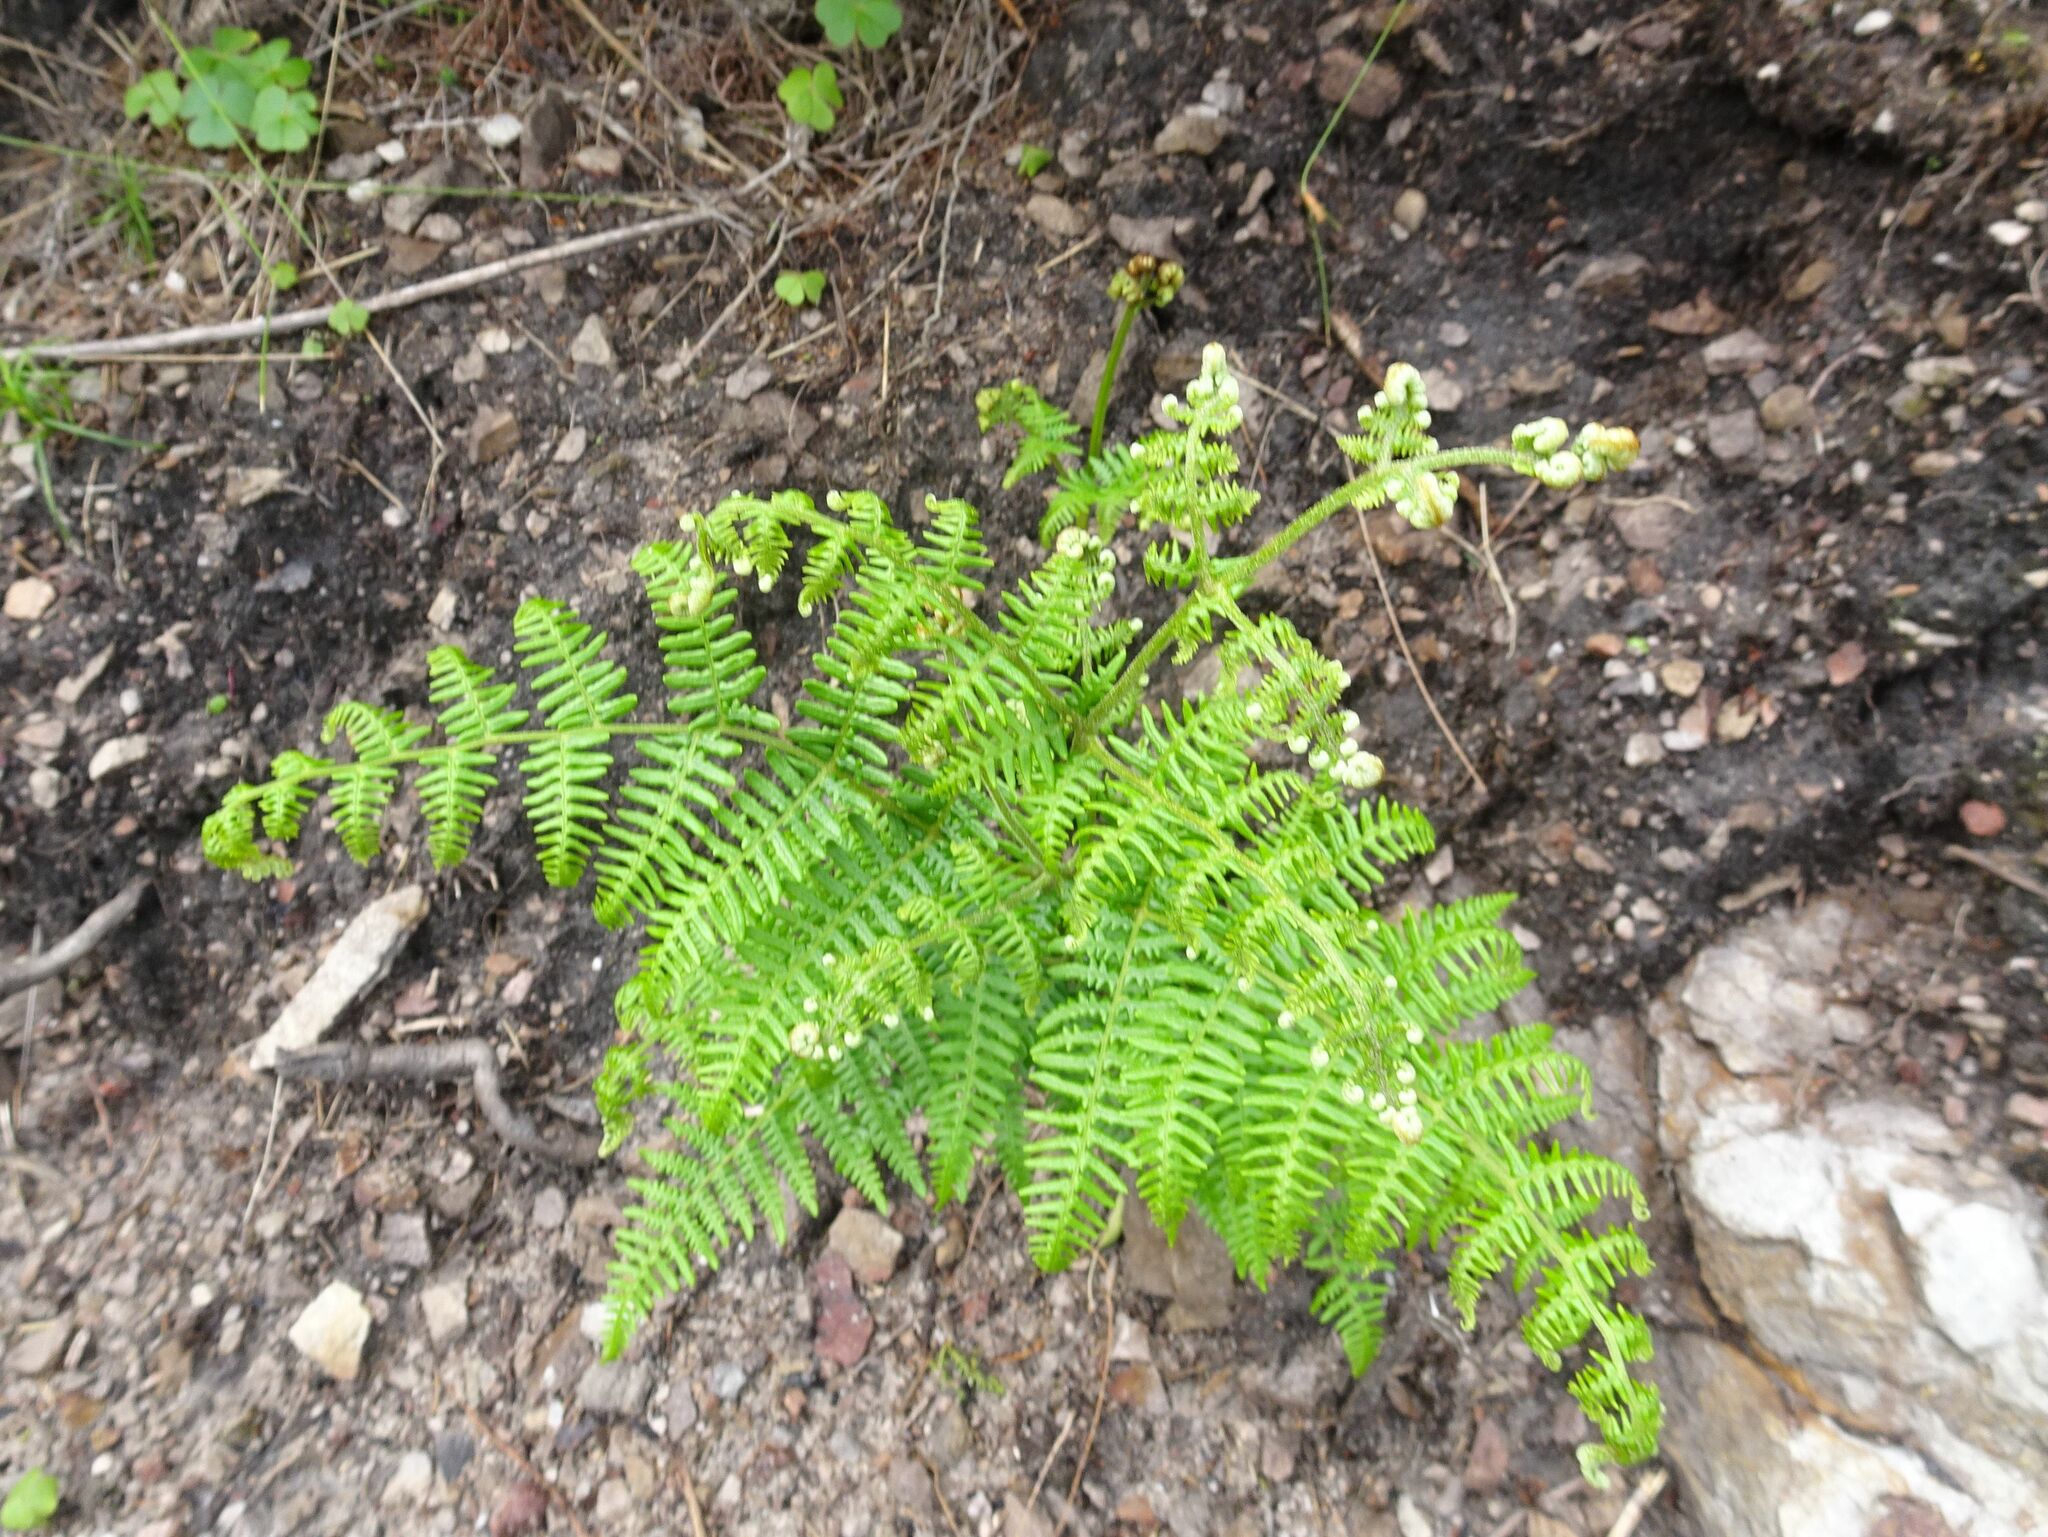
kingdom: Plantae
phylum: Tracheophyta
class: Polypodiopsida
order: Polypodiales
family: Dennstaedtiaceae
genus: Pteridium
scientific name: Pteridium aquilinum
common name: Bracken
